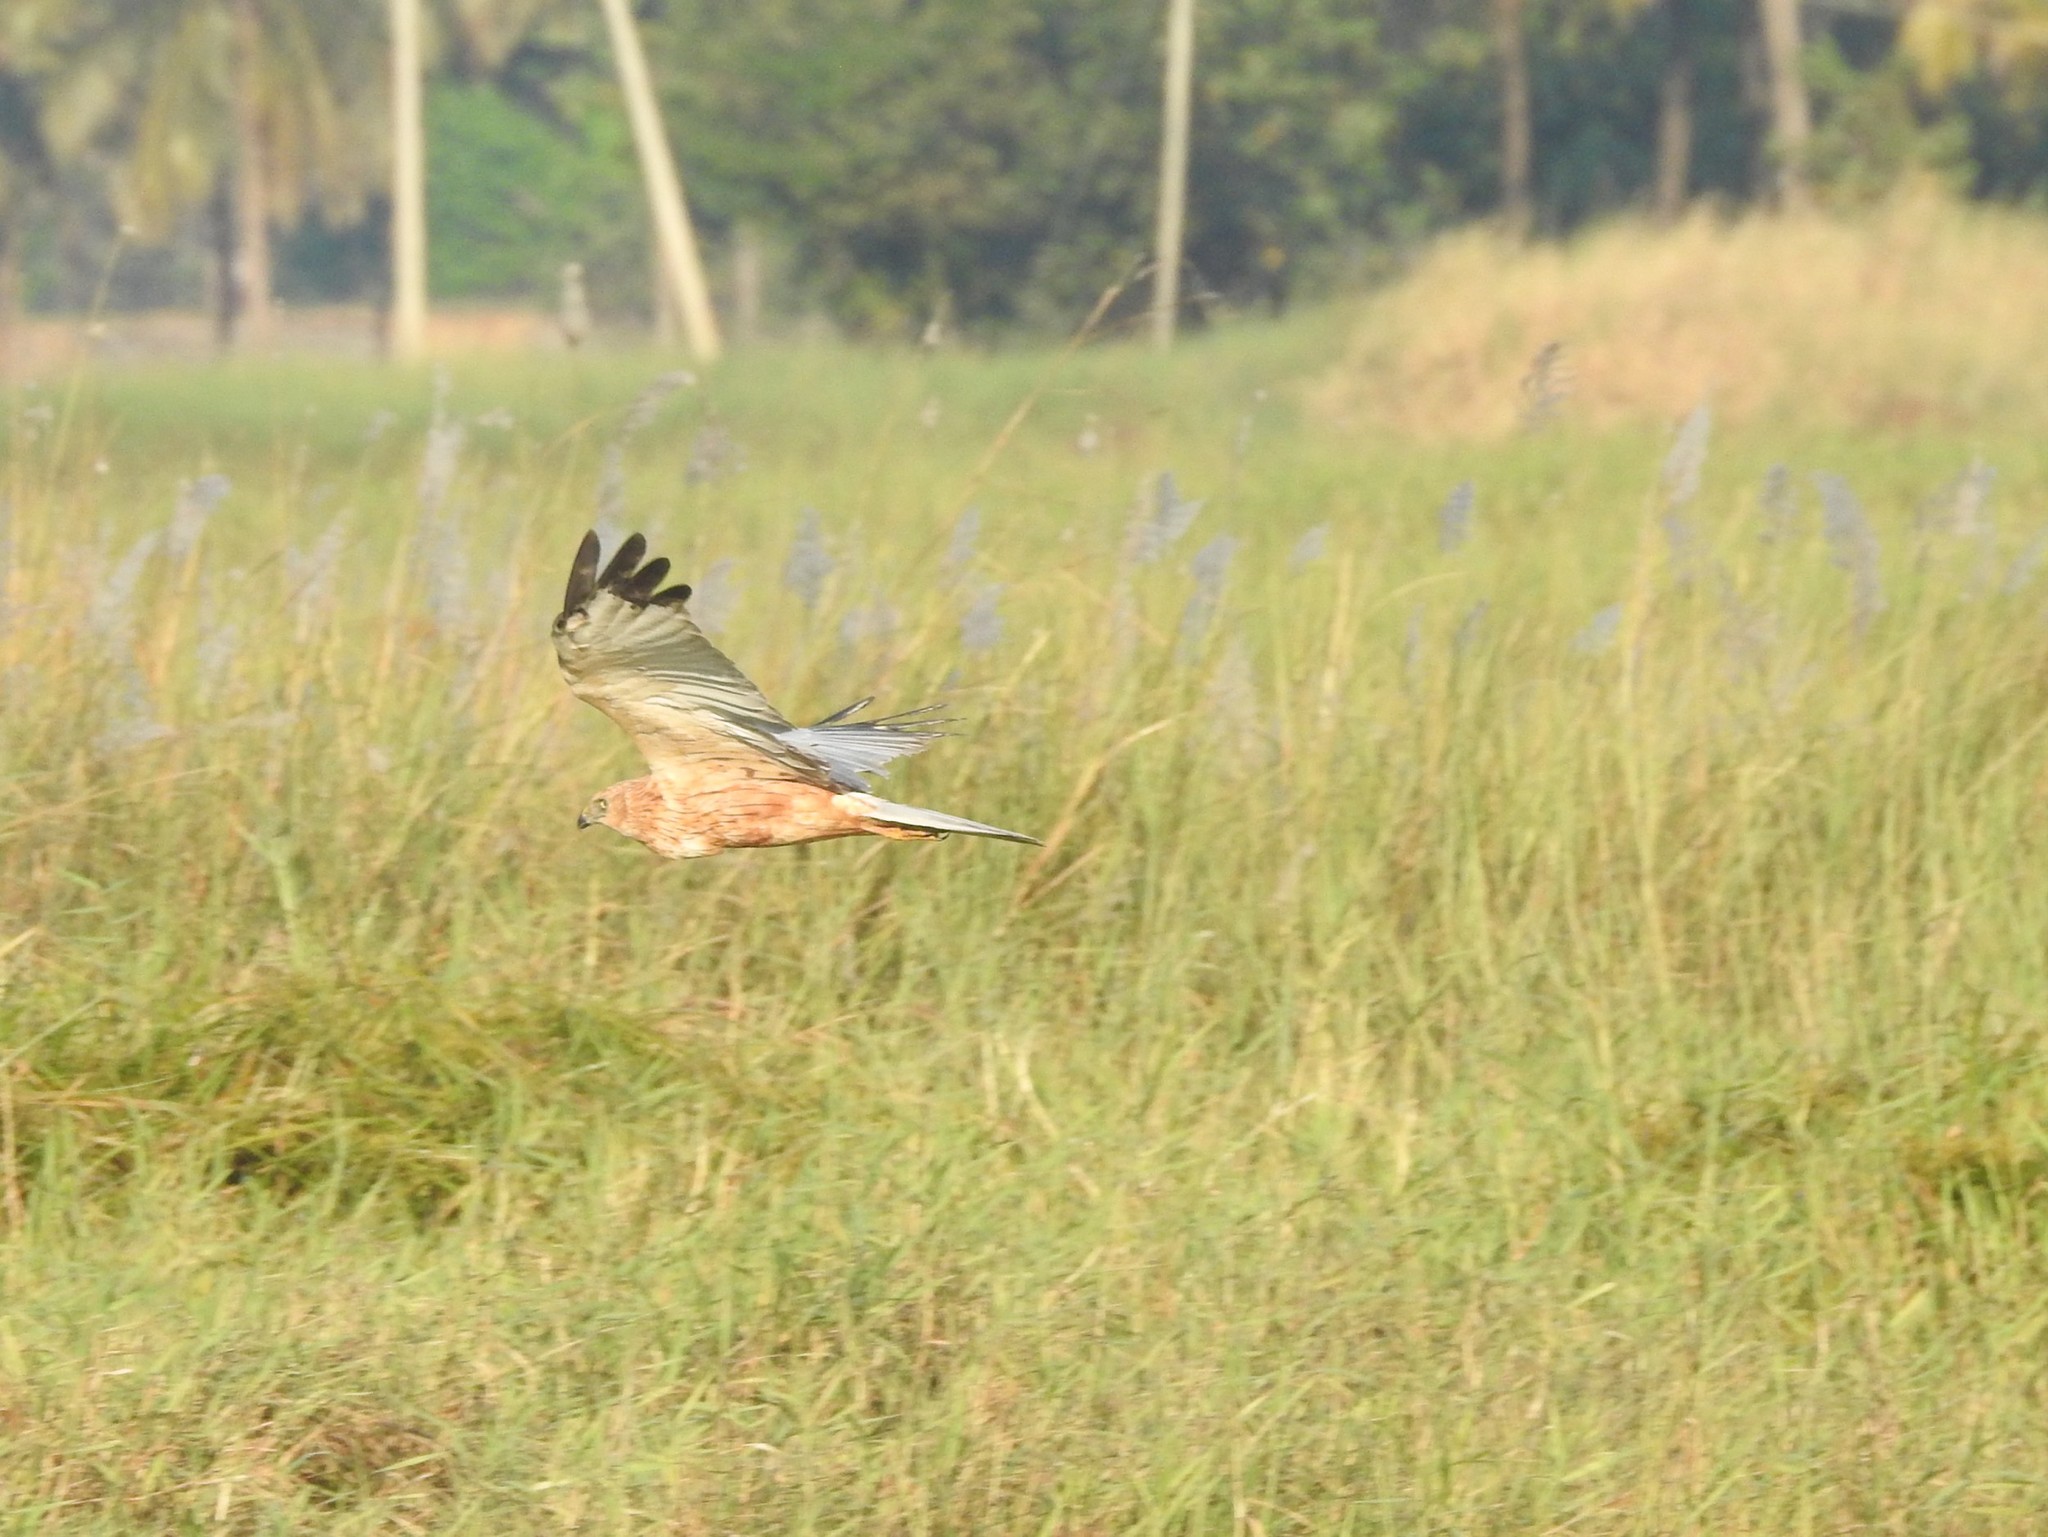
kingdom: Animalia
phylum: Chordata
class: Aves
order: Accipitriformes
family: Accipitridae
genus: Circus
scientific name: Circus aeruginosus
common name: Western marsh harrier
